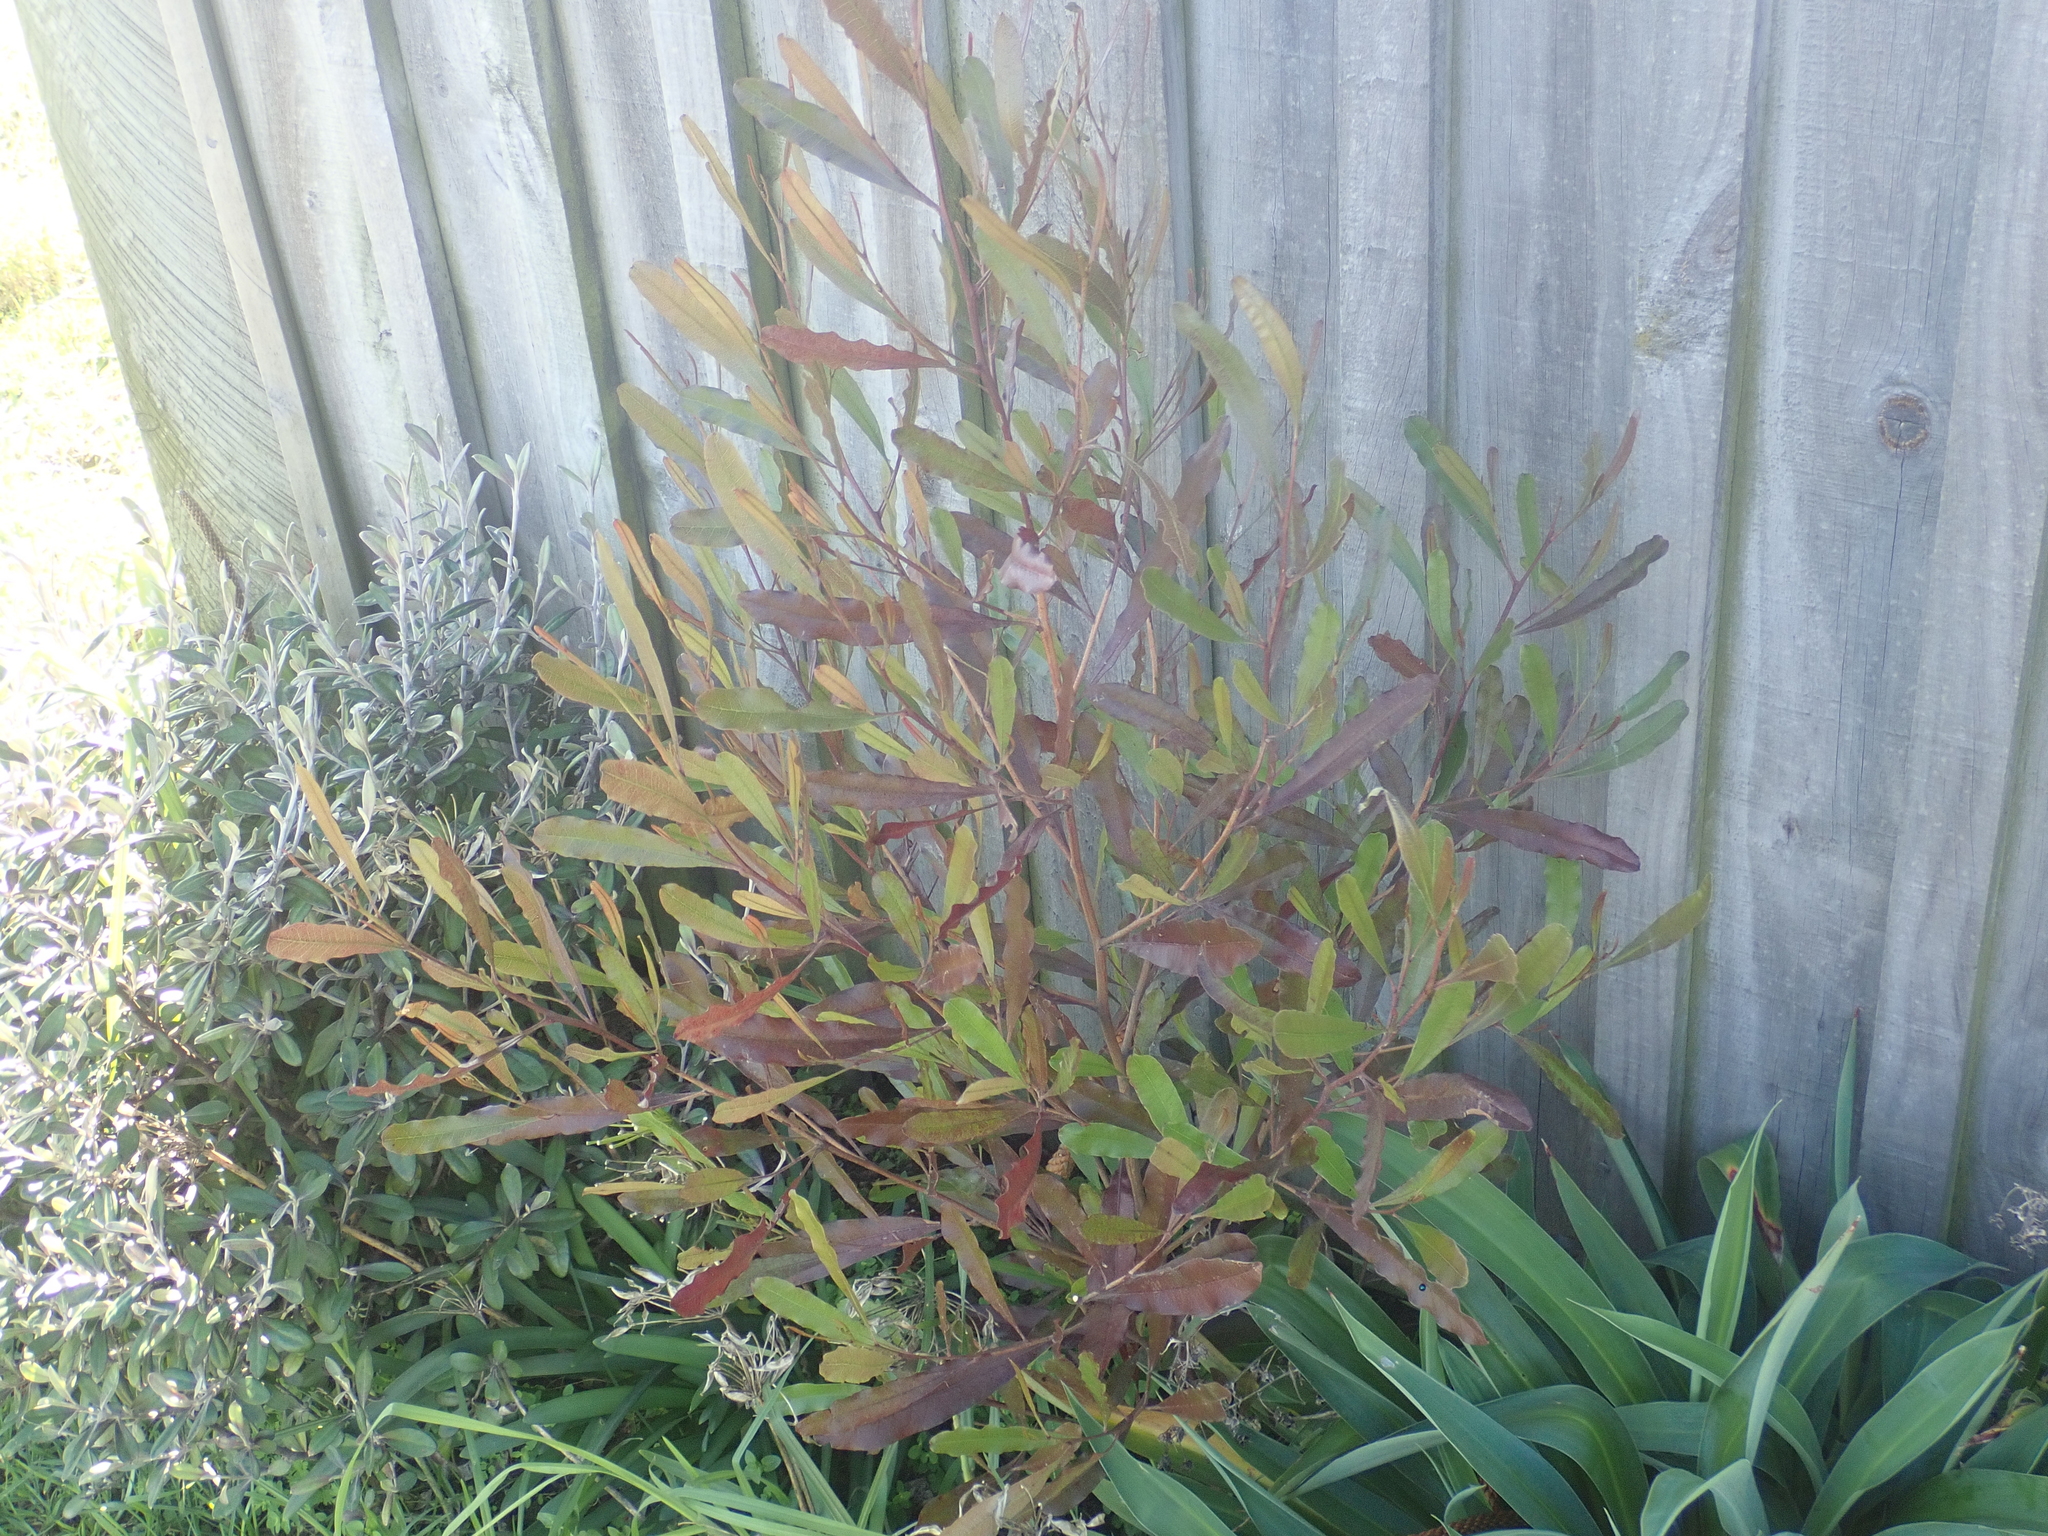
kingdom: Plantae
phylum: Tracheophyta
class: Magnoliopsida
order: Sapindales
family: Sapindaceae
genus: Dodonaea
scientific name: Dodonaea viscosa
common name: Hopbush
